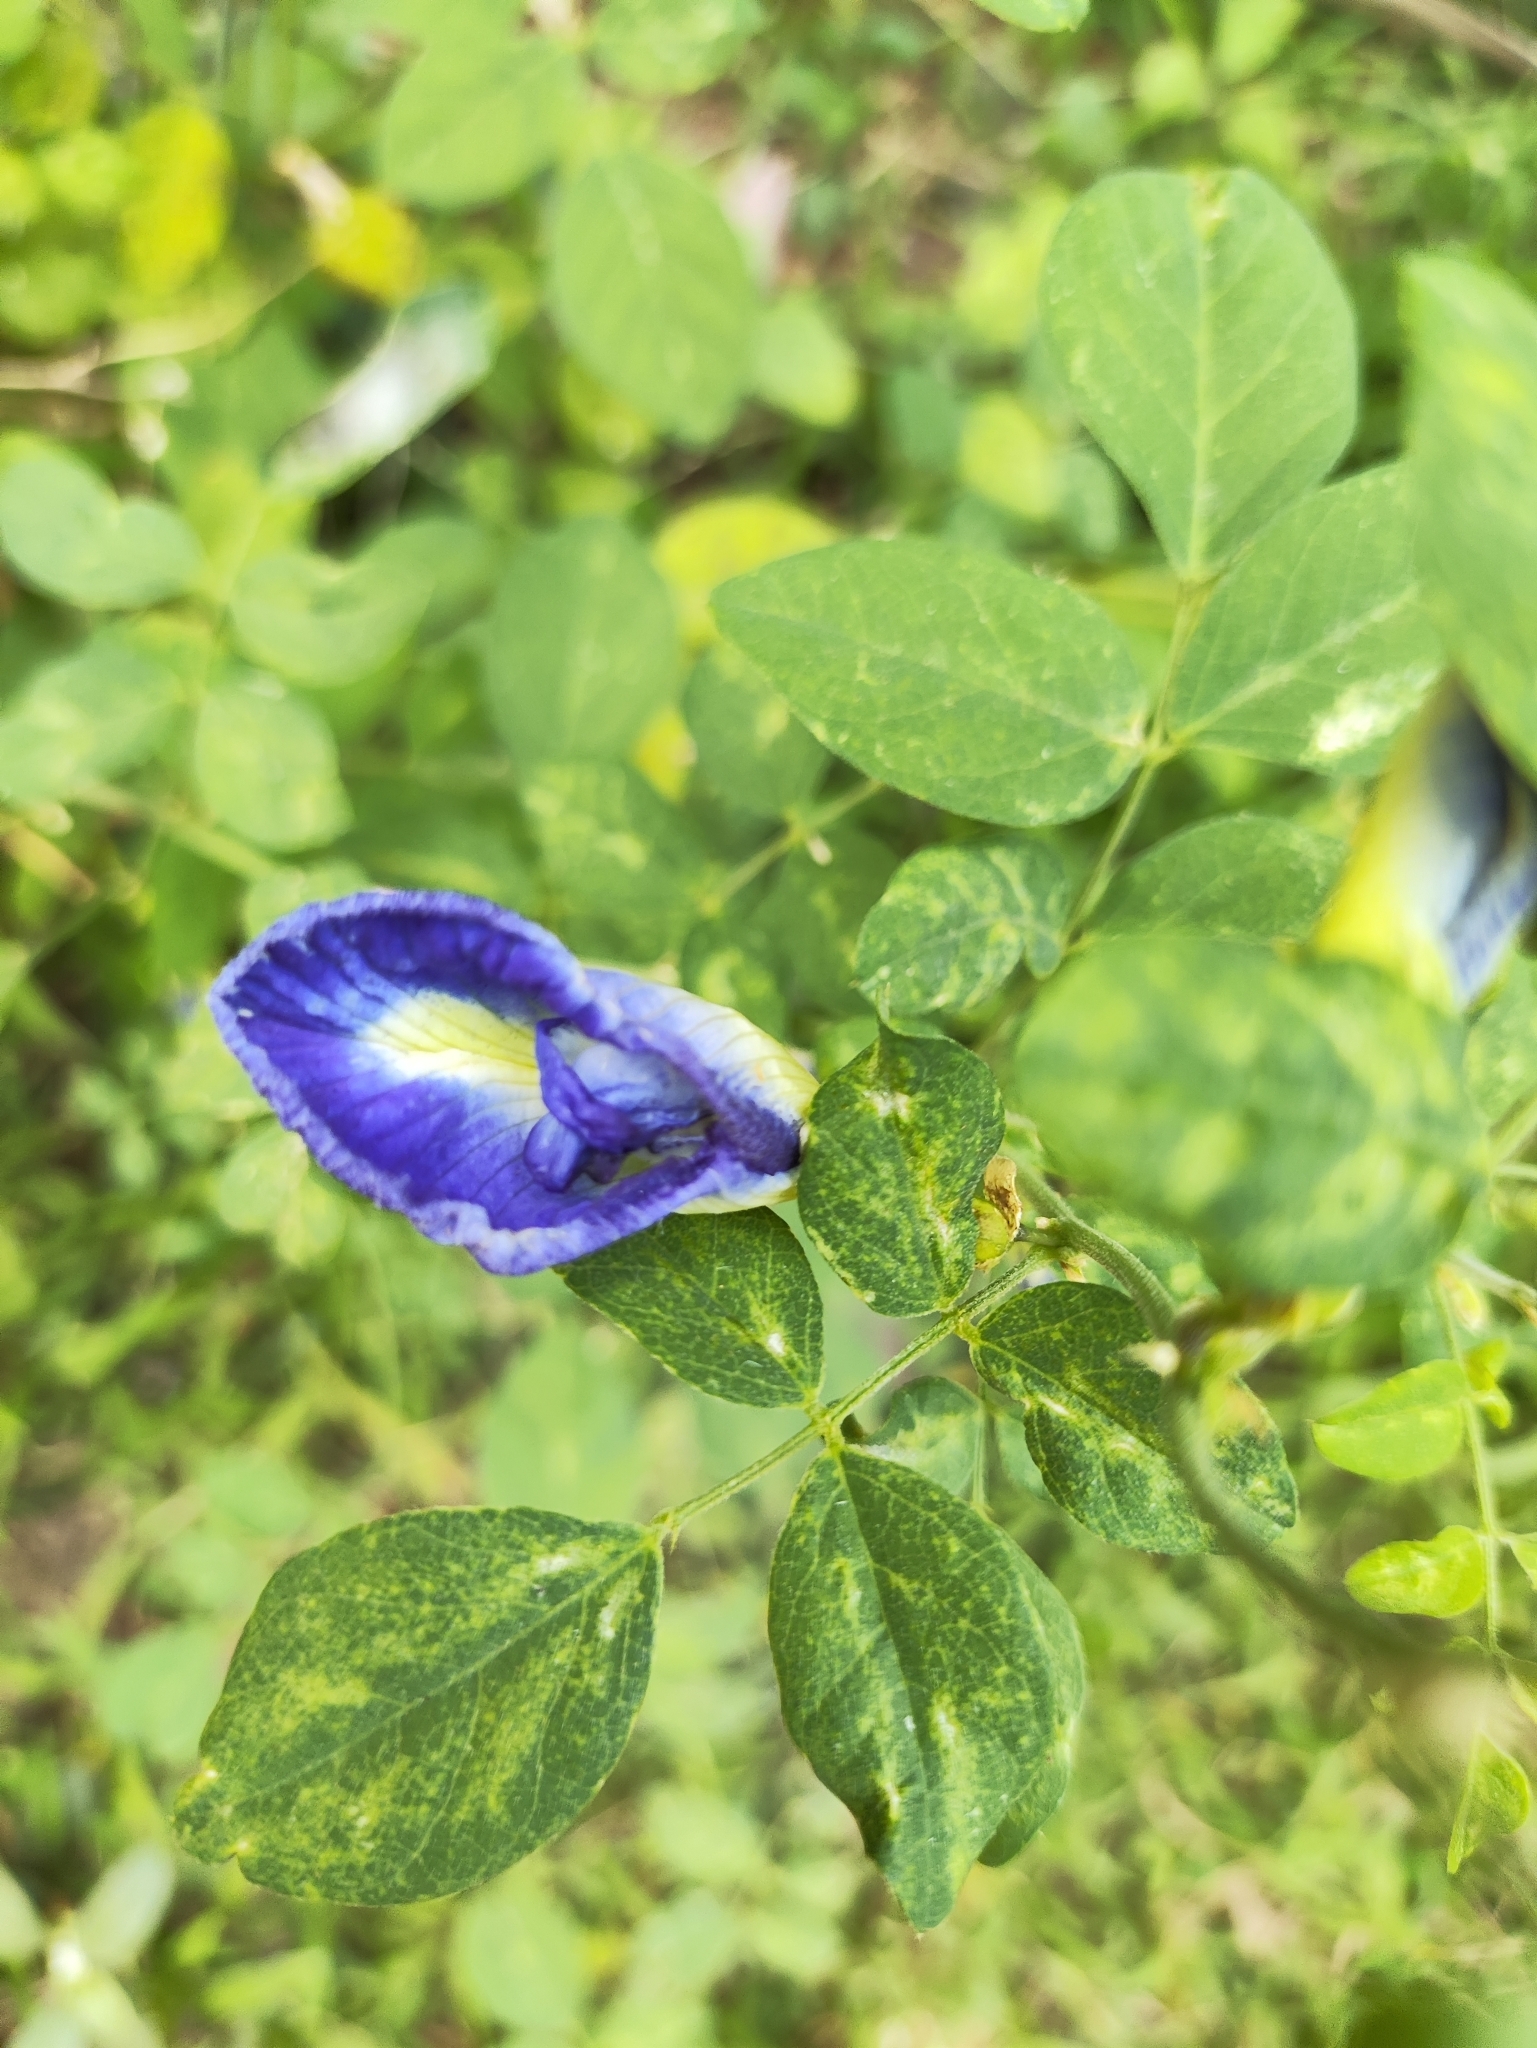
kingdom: Plantae
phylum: Tracheophyta
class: Magnoliopsida
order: Fabales
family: Fabaceae
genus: Clitoria
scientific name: Clitoria ternatea
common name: Asian pigeonwings
